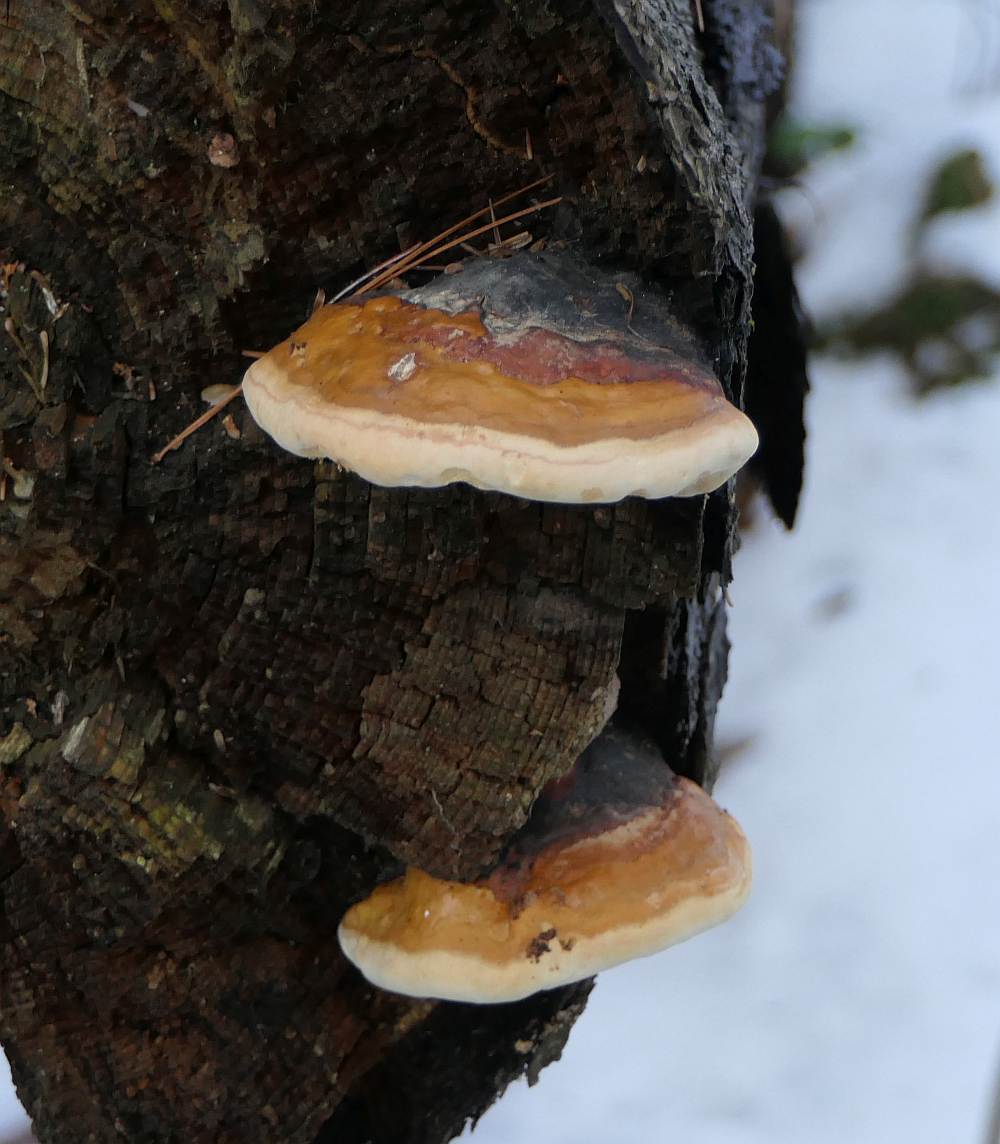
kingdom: Fungi
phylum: Basidiomycota
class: Agaricomycetes
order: Polyporales
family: Fomitopsidaceae
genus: Fomitopsis
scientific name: Fomitopsis mounceae
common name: Northern red belt
